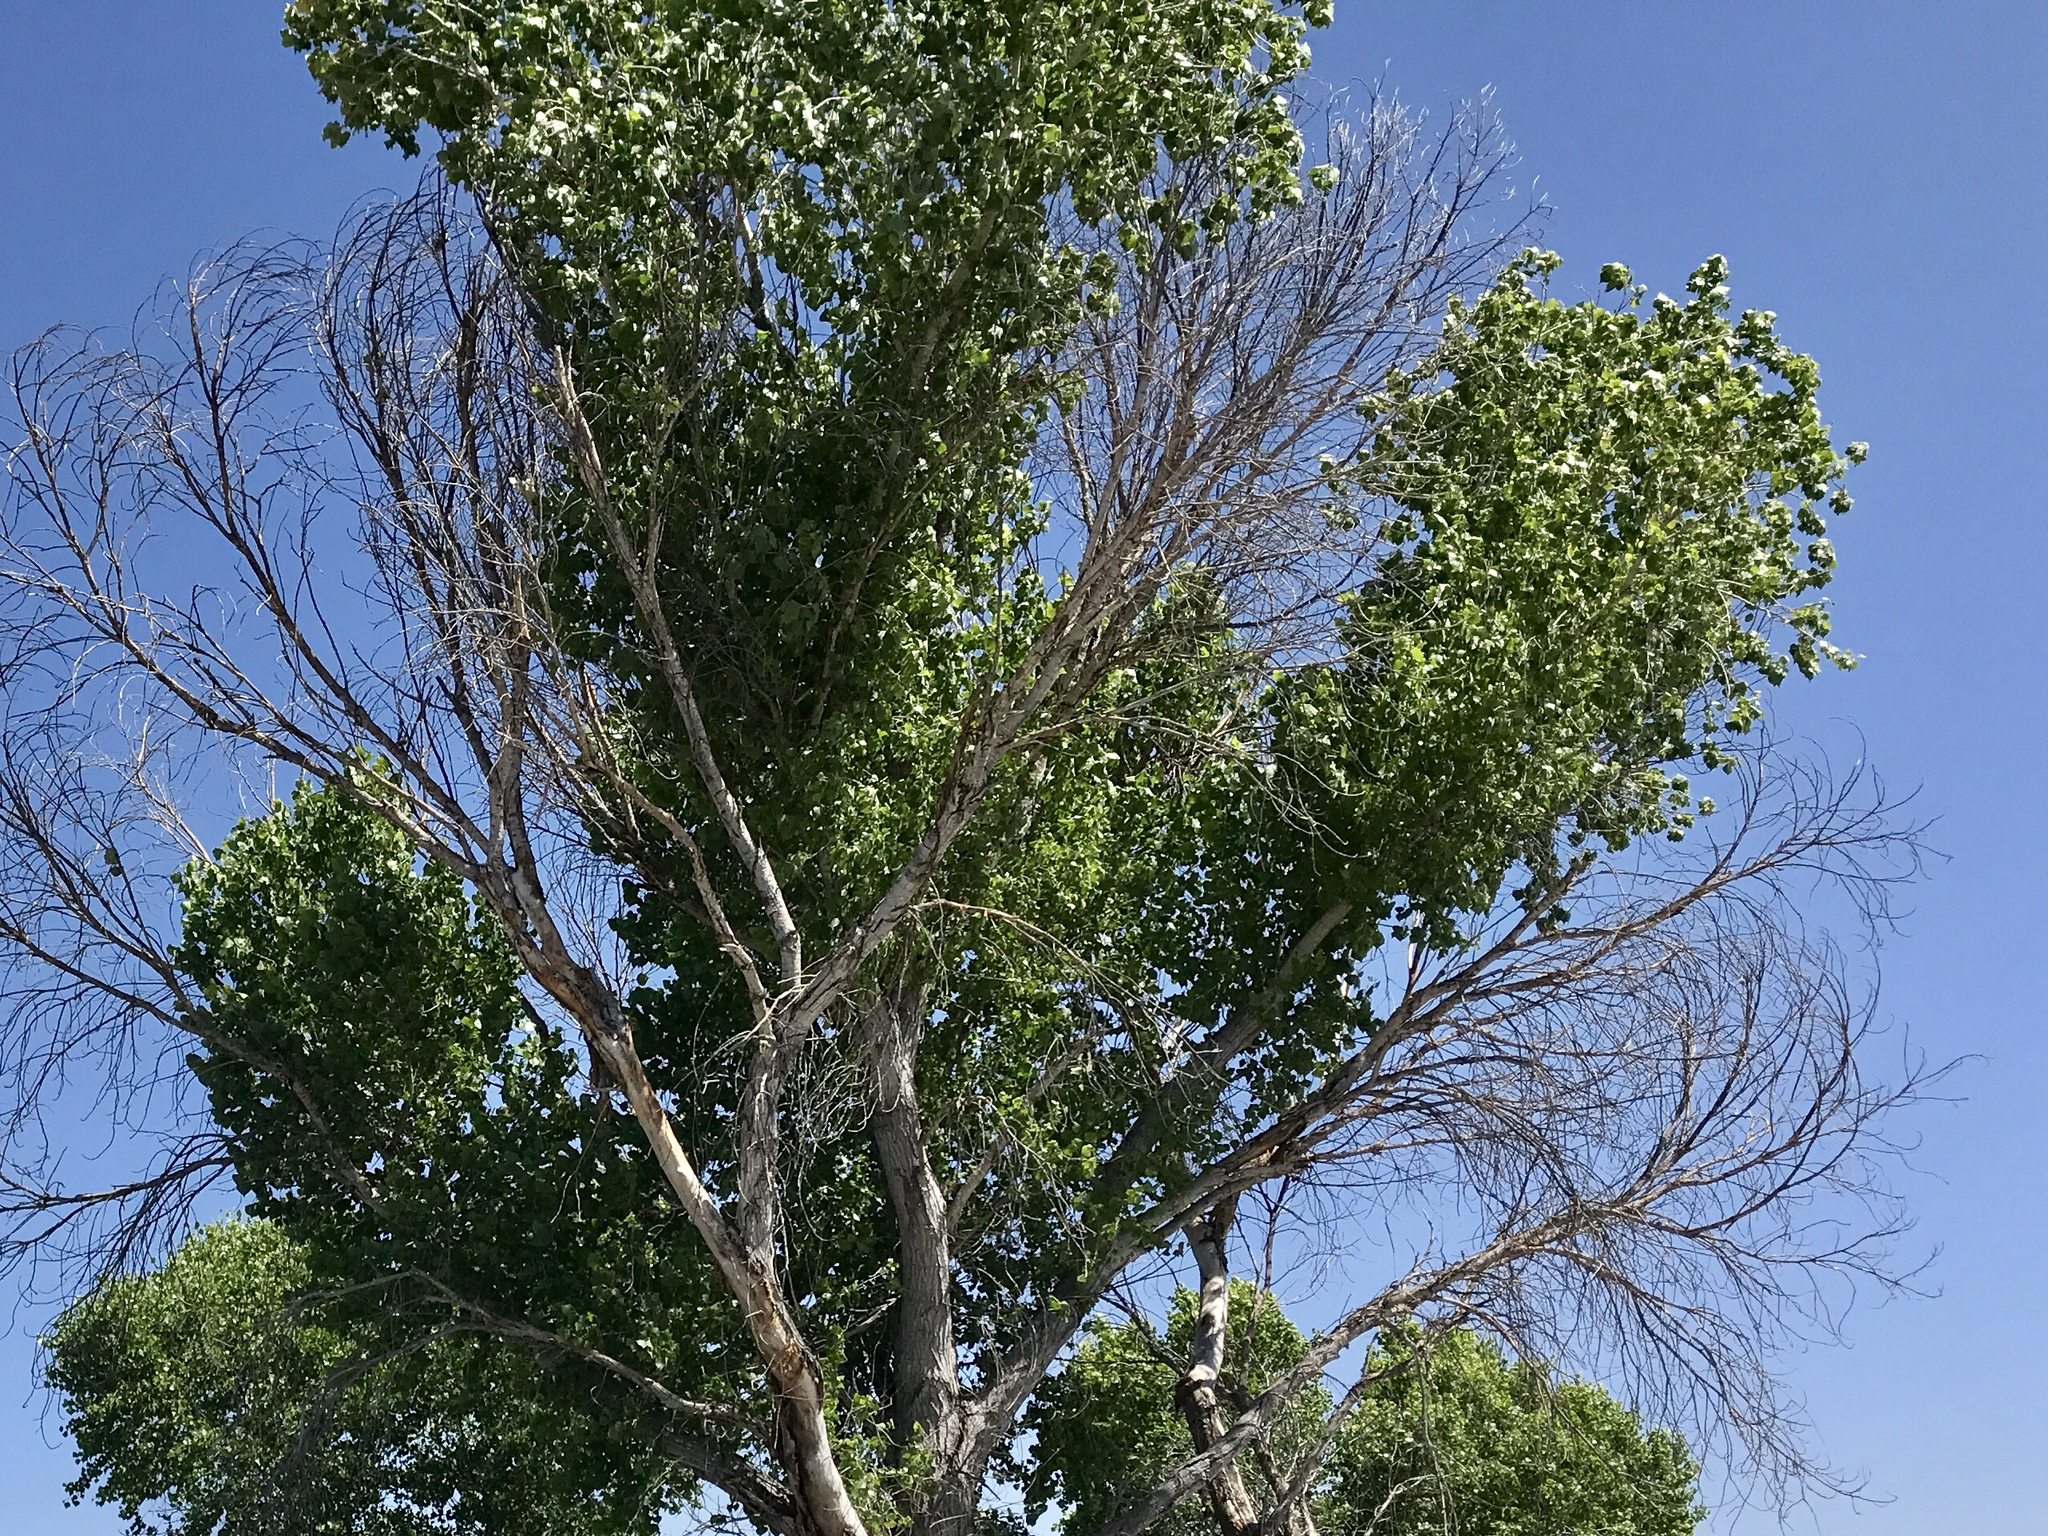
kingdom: Plantae
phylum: Tracheophyta
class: Magnoliopsida
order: Malpighiales
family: Salicaceae
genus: Populus
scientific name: Populus fremontii
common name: Fremont's cottonwood
